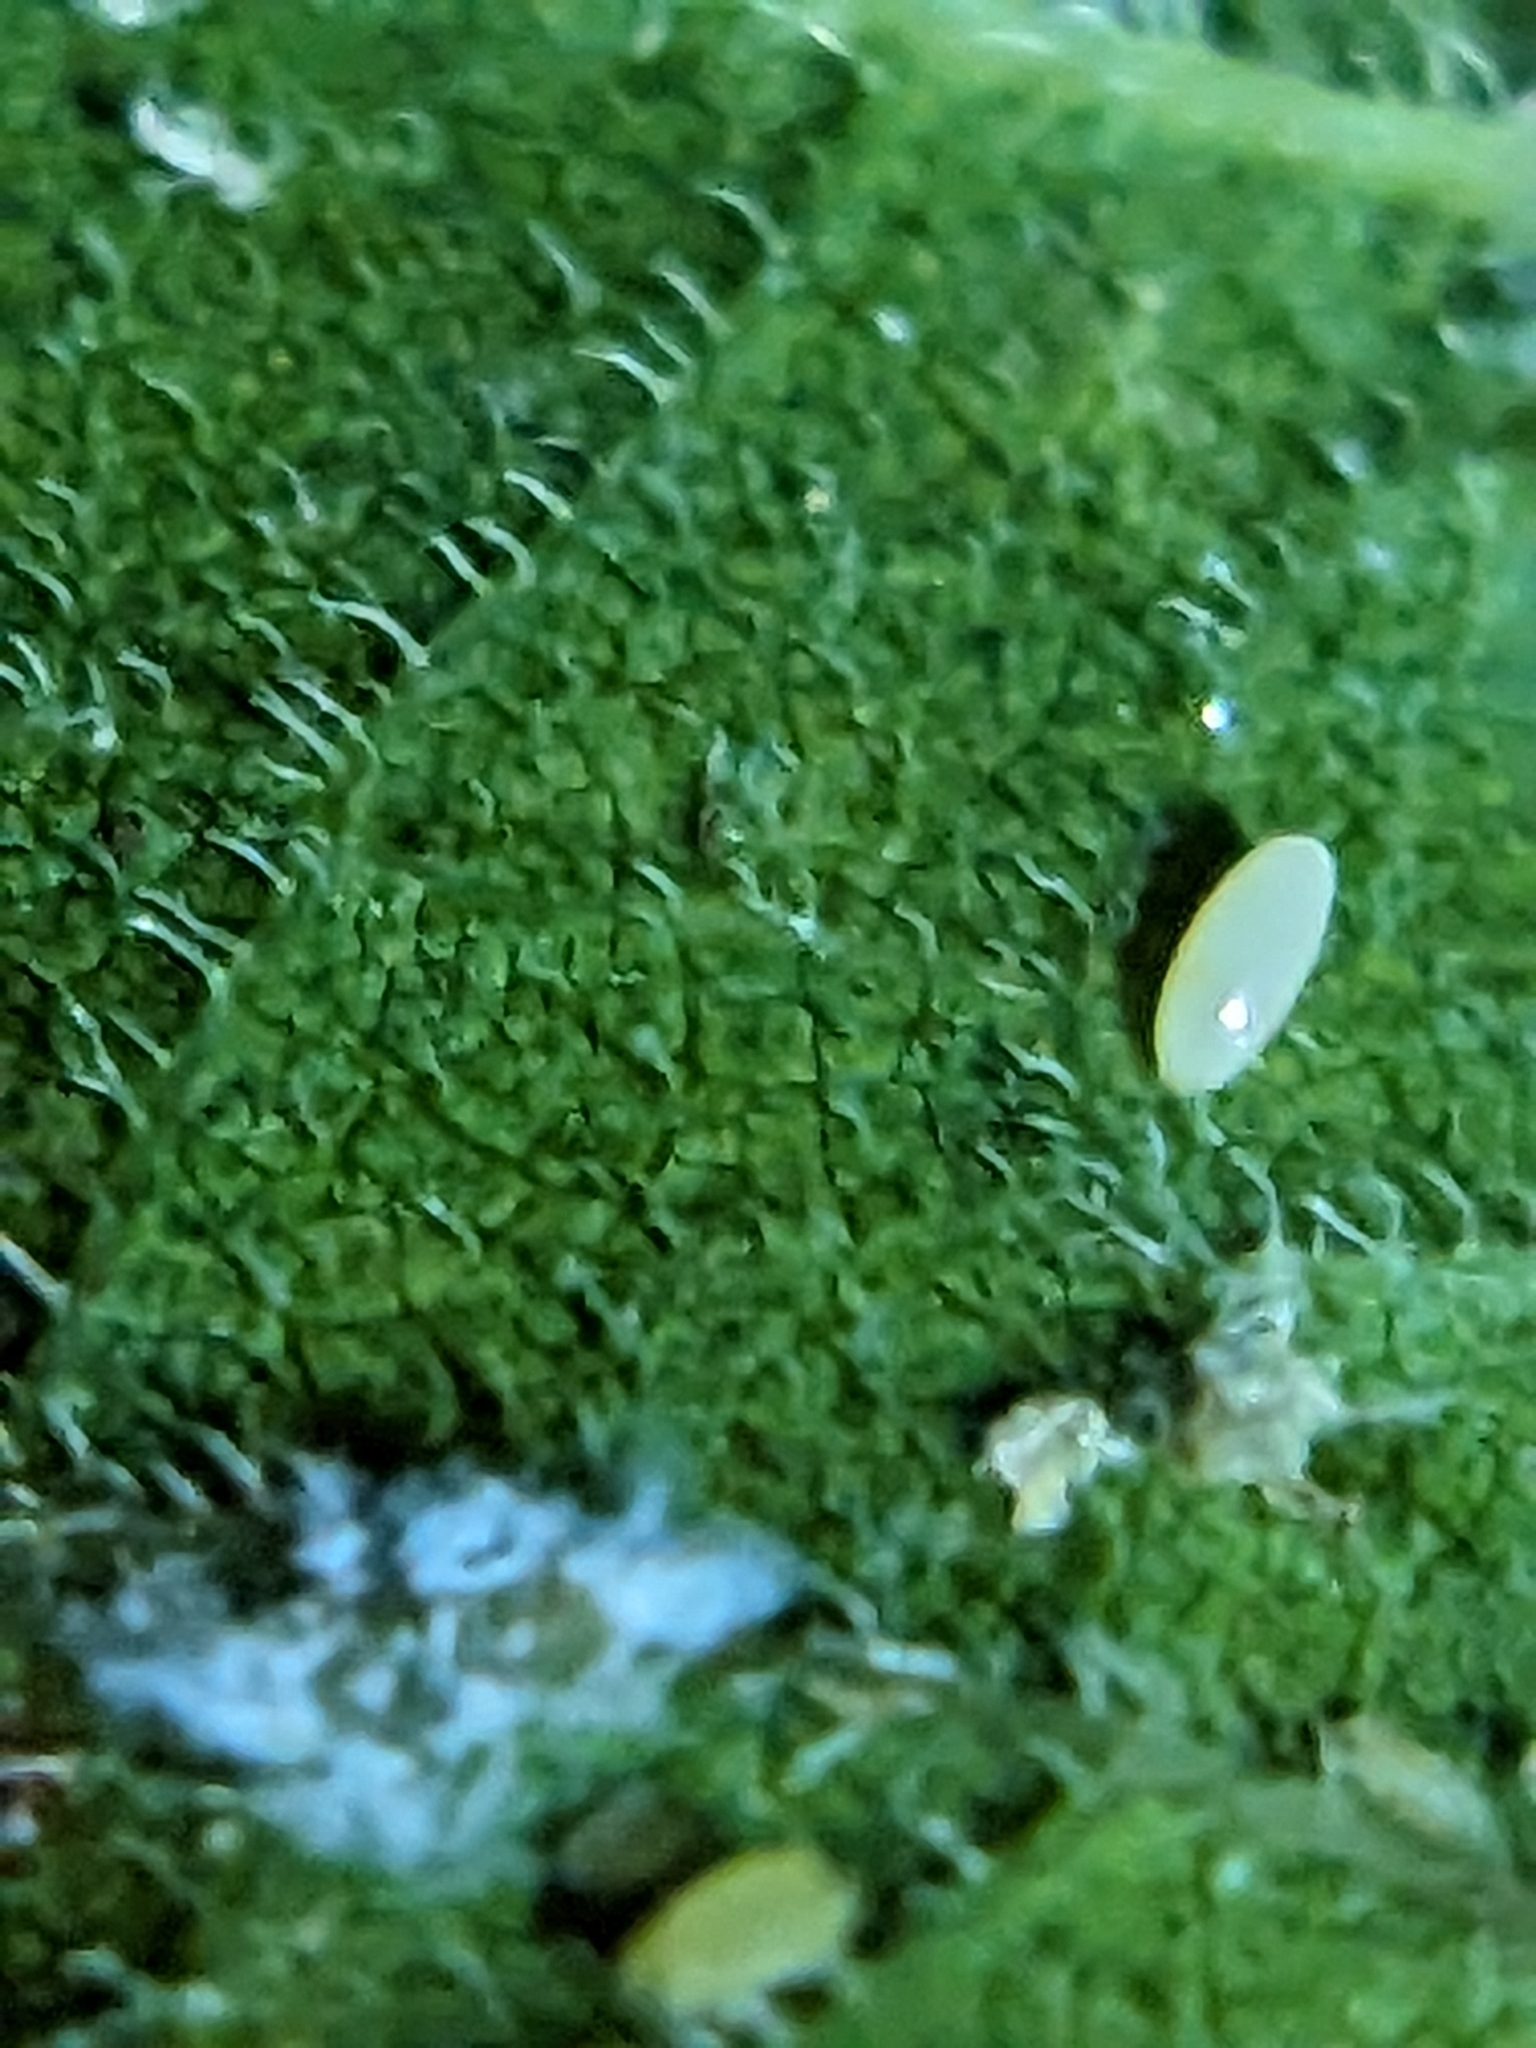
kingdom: Animalia
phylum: Arthropoda
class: Insecta
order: Hemiptera
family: Aphididae
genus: Shivaphis
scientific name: Shivaphis celti
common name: Asian wooly hackberry aphid
